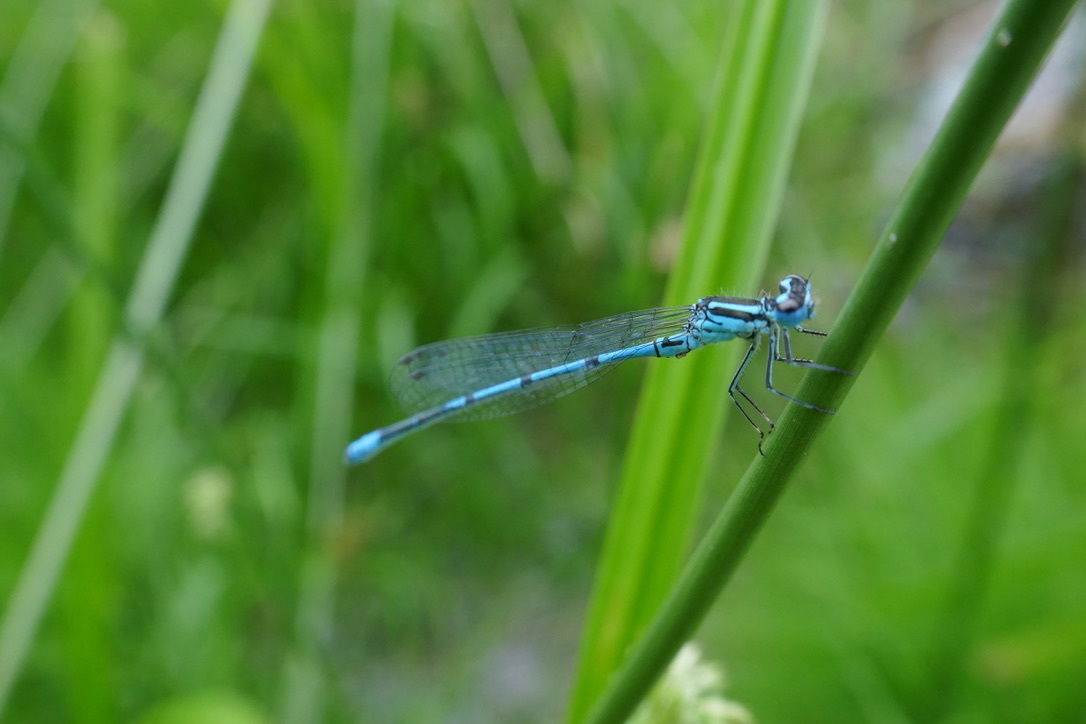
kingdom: Animalia
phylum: Arthropoda
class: Insecta
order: Odonata
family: Coenagrionidae
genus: Coenagrion
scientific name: Coenagrion puella
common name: Azure damselfly
